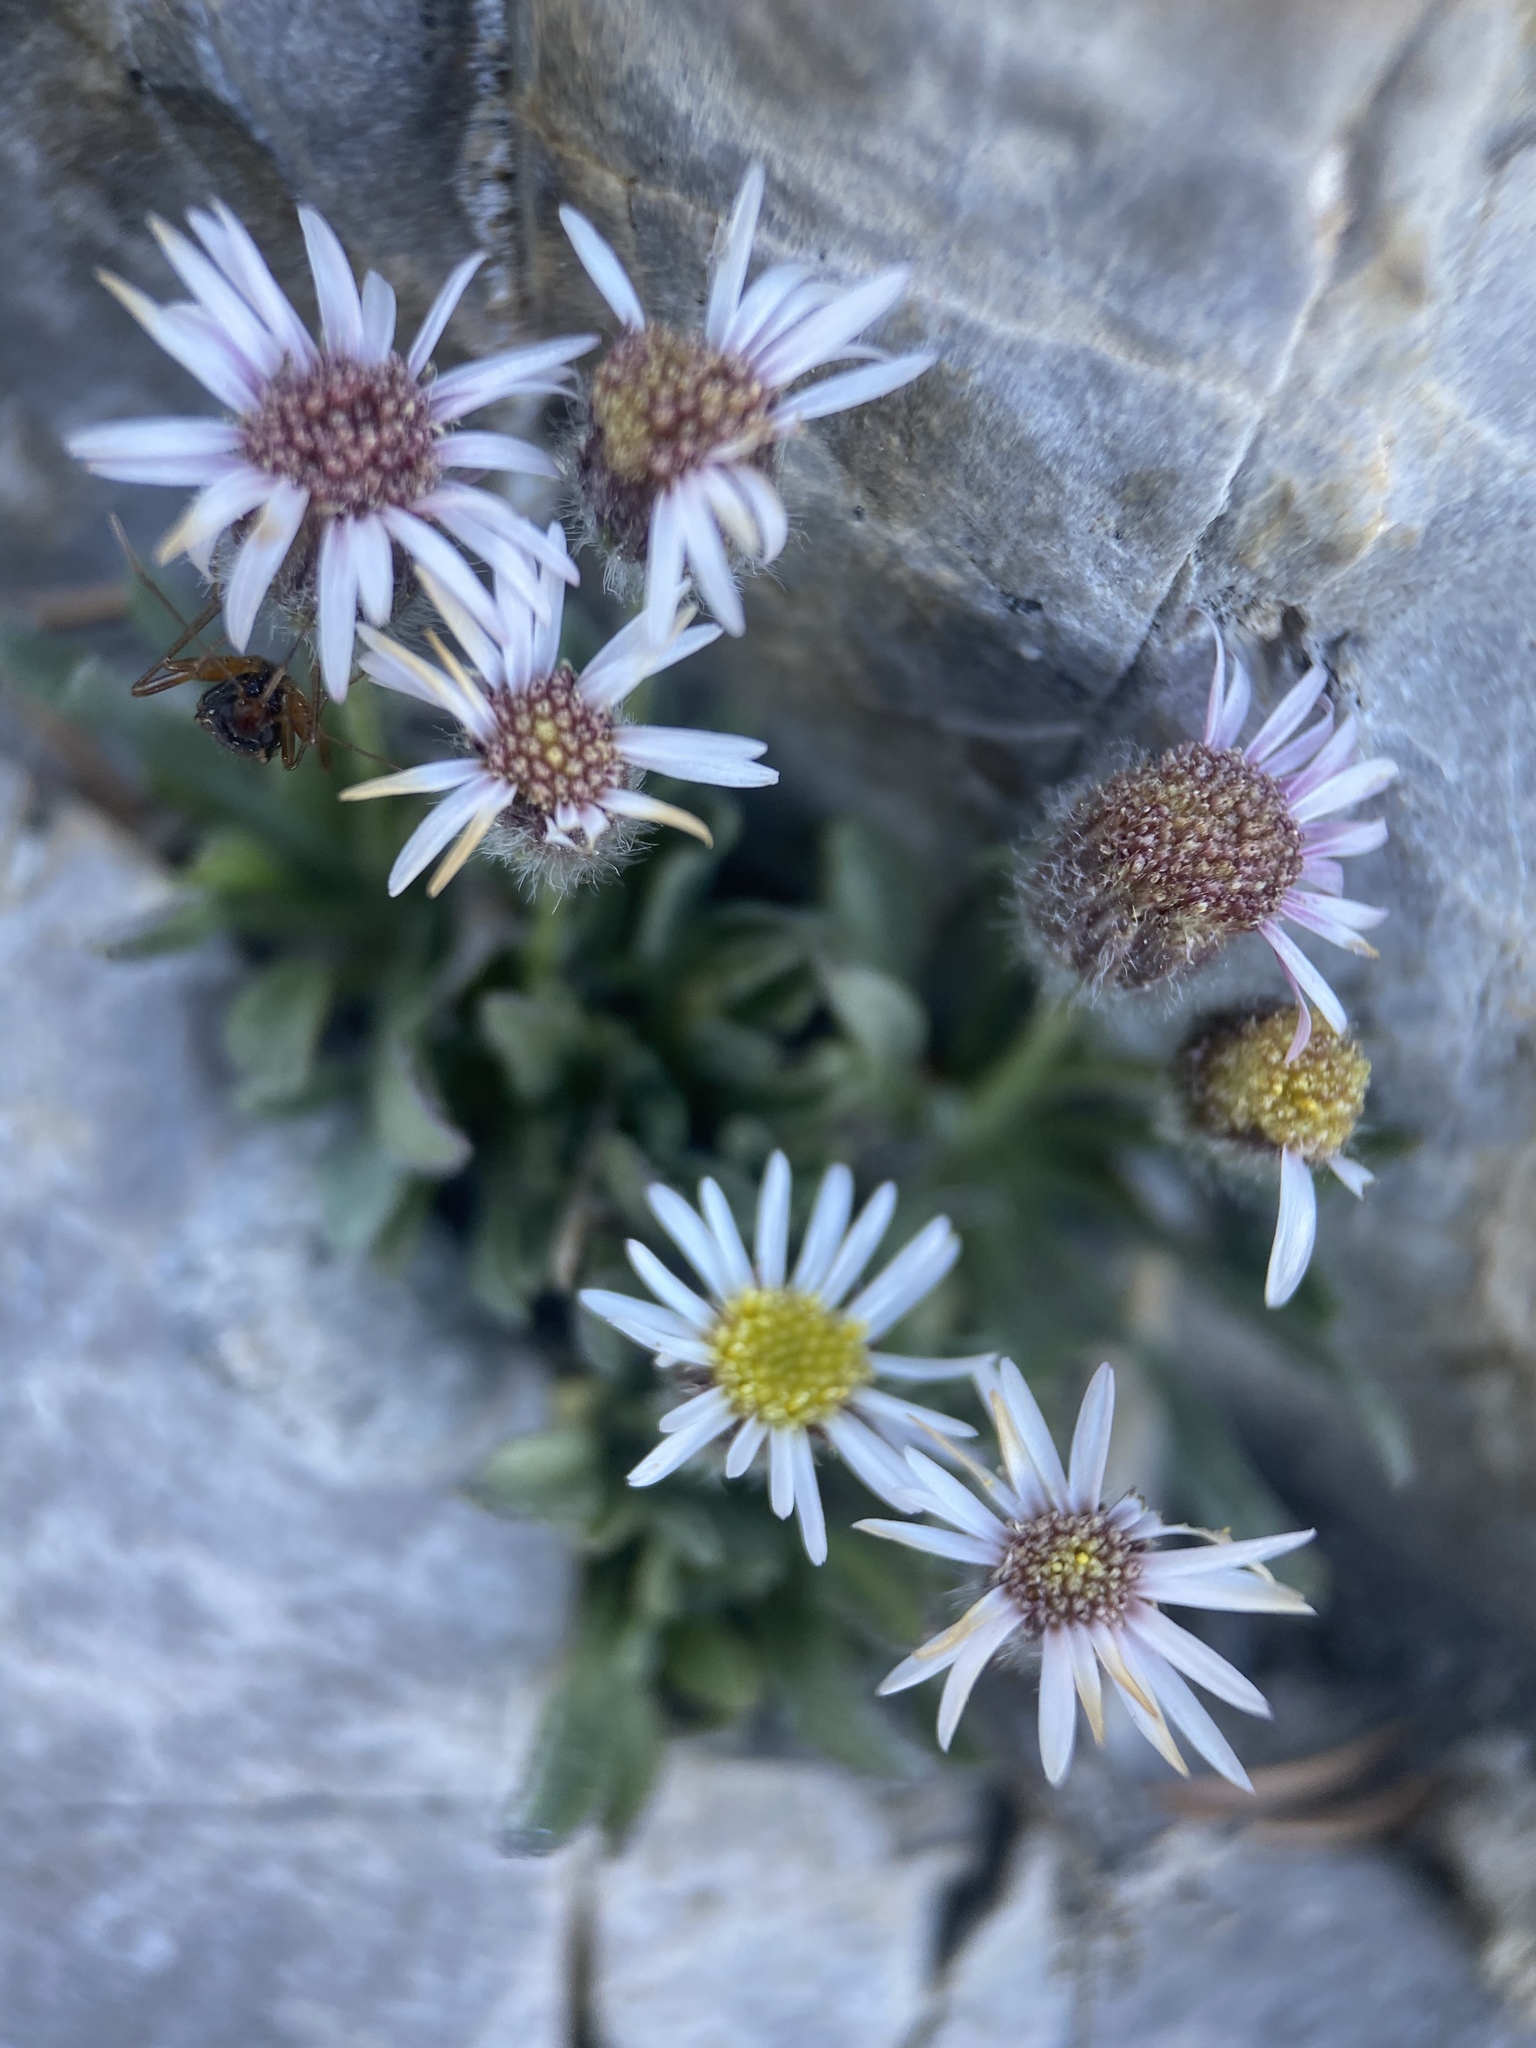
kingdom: Plantae
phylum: Tracheophyta
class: Magnoliopsida
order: Asterales
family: Asteraceae
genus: Erigeron
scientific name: Erigeron uncialis
